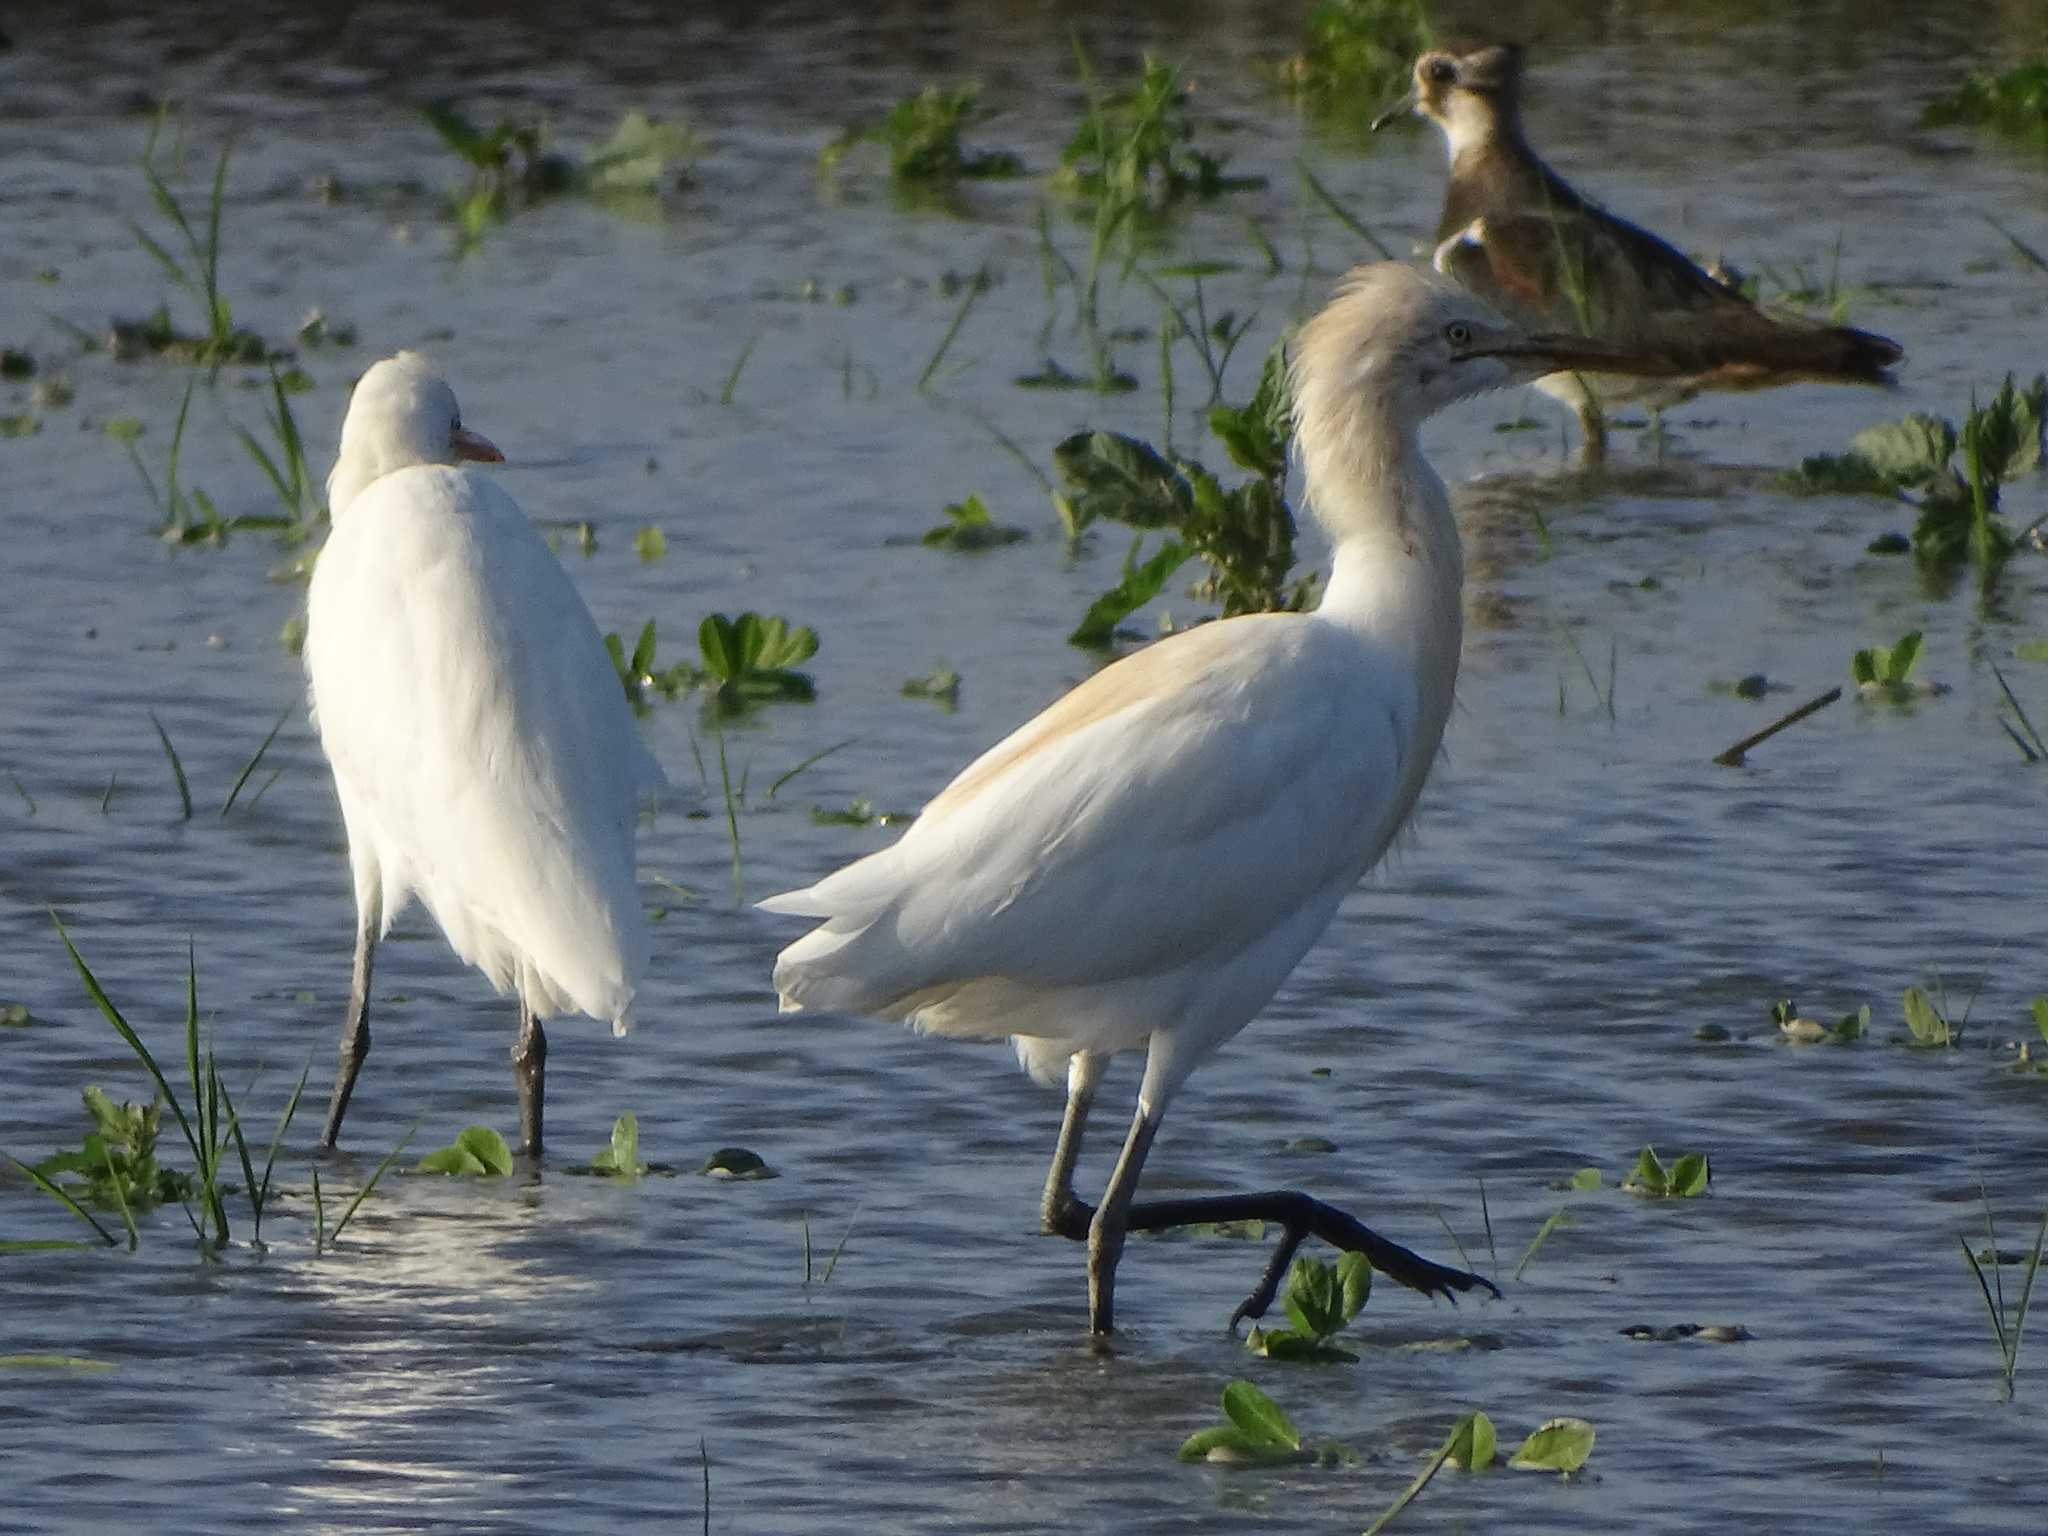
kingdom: Animalia
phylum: Chordata
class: Aves
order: Pelecaniformes
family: Ardeidae
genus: Bubulcus
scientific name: Bubulcus coromandus
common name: Eastern cattle egret
